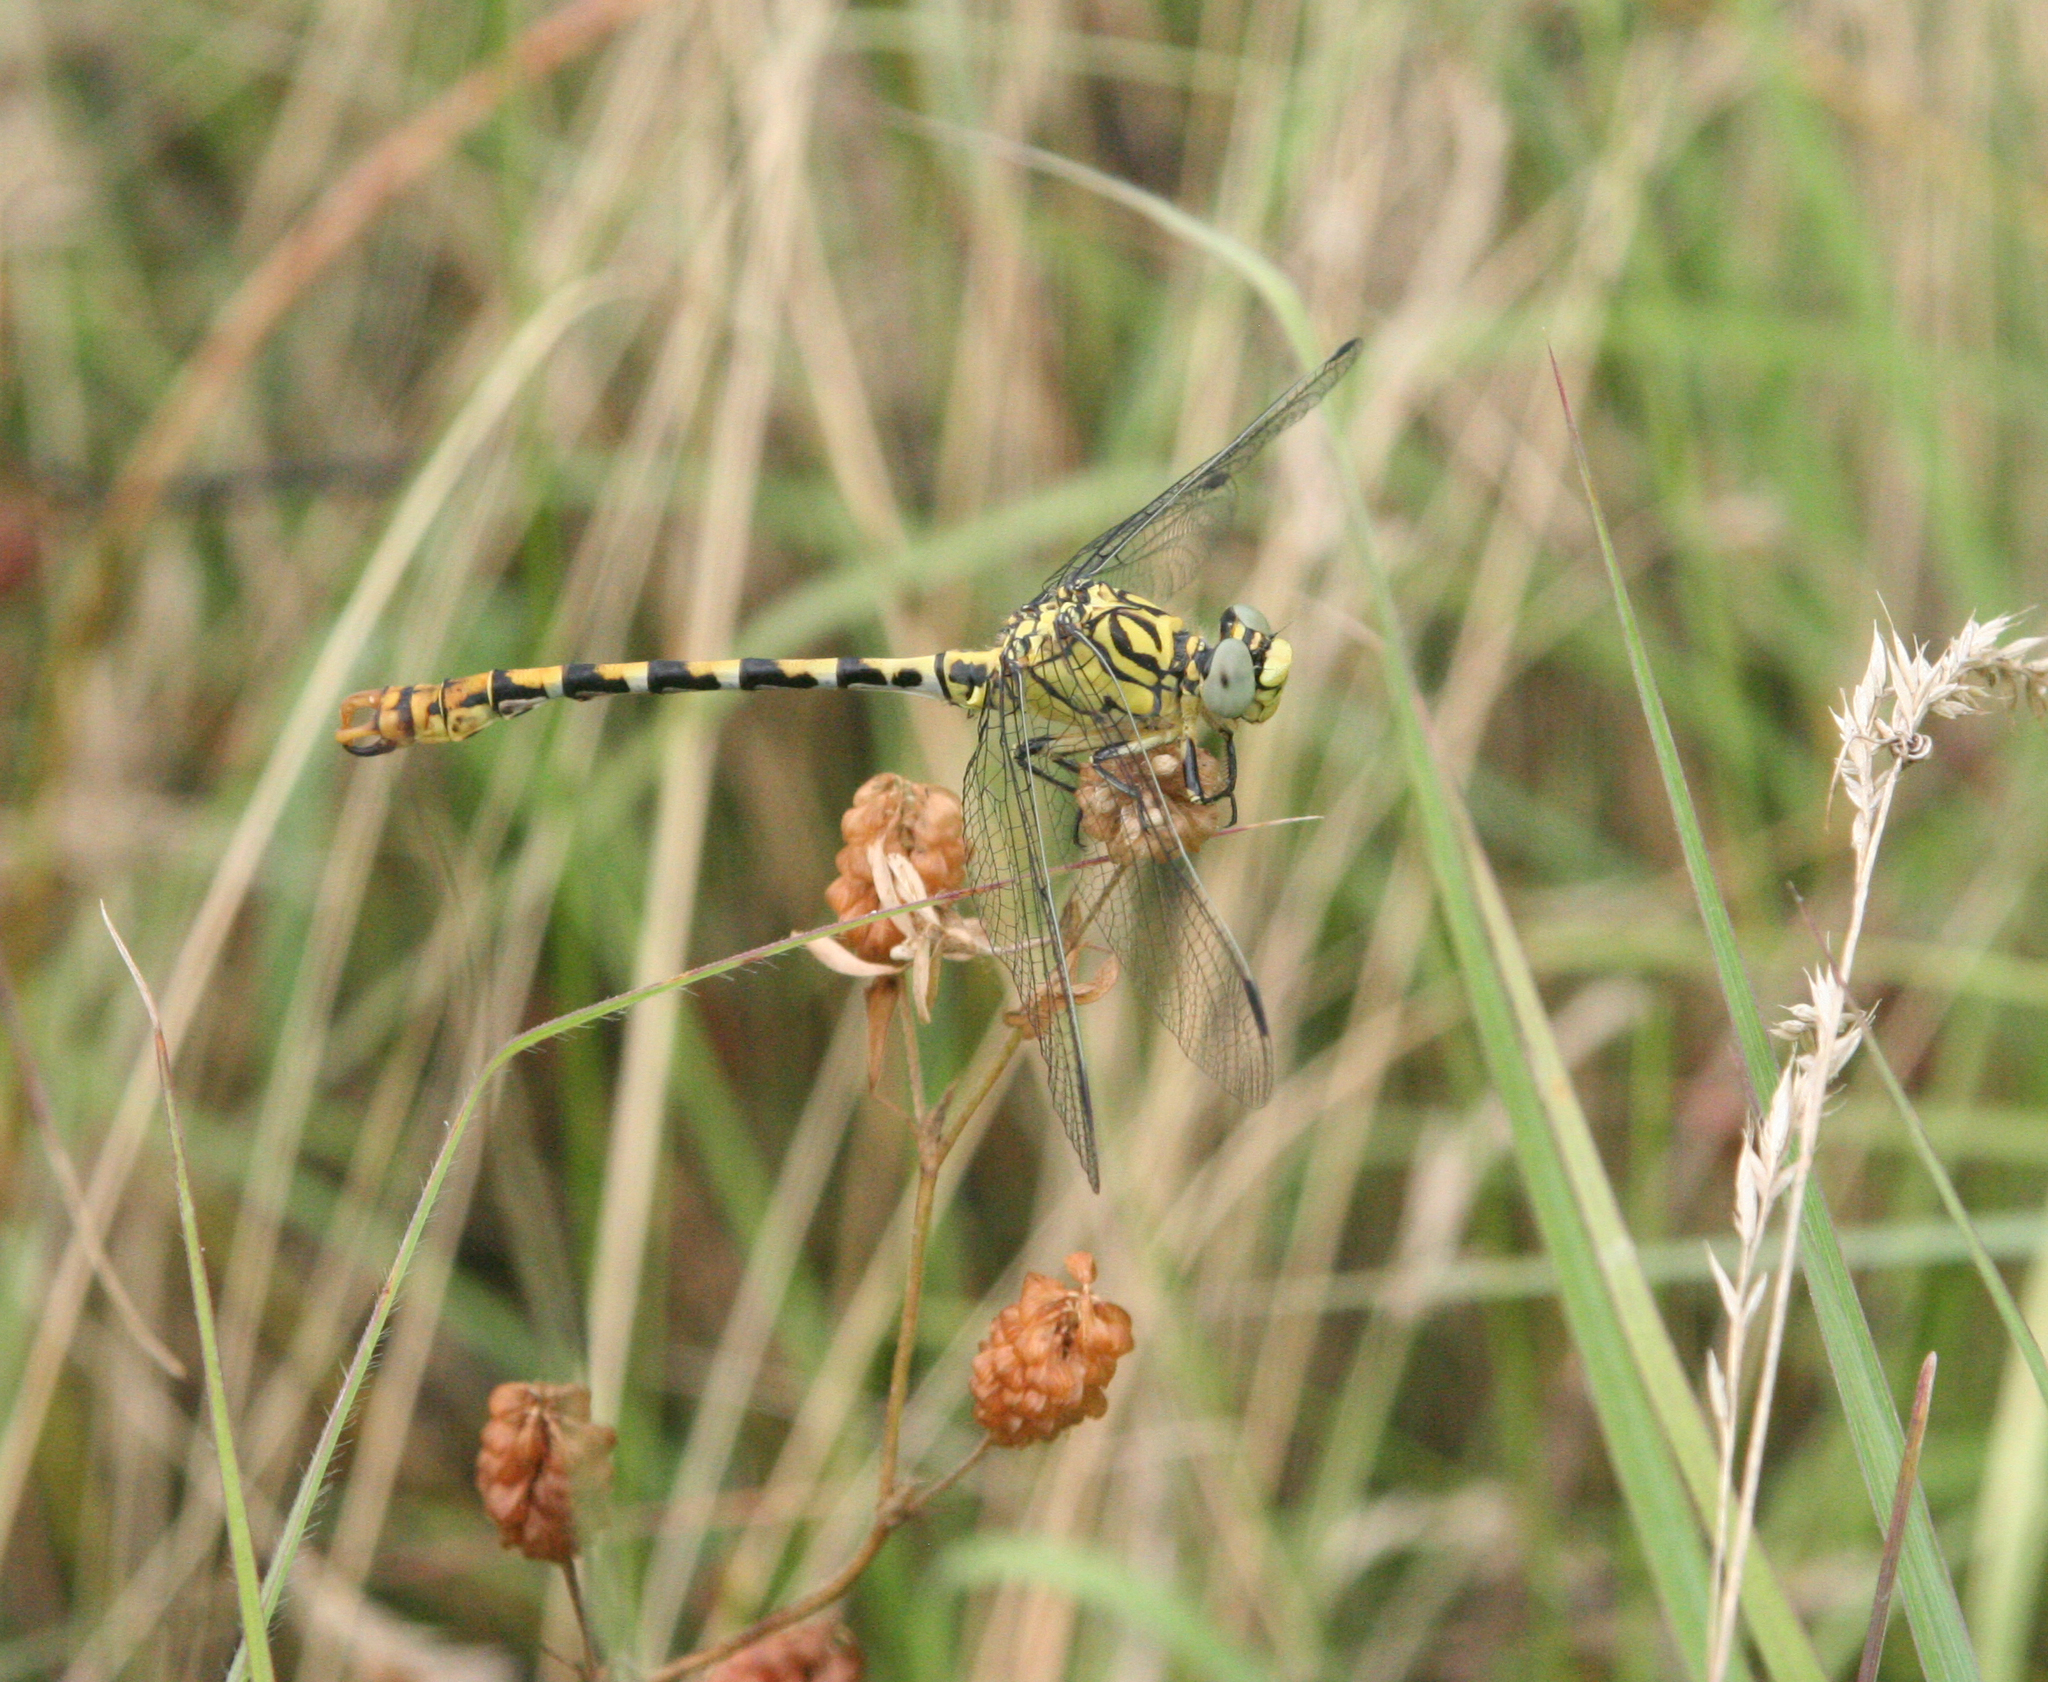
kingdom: Animalia
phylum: Arthropoda
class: Insecta
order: Odonata
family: Gomphidae
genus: Onychogomphus
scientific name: Onychogomphus forcipatus
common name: Small pincertail
